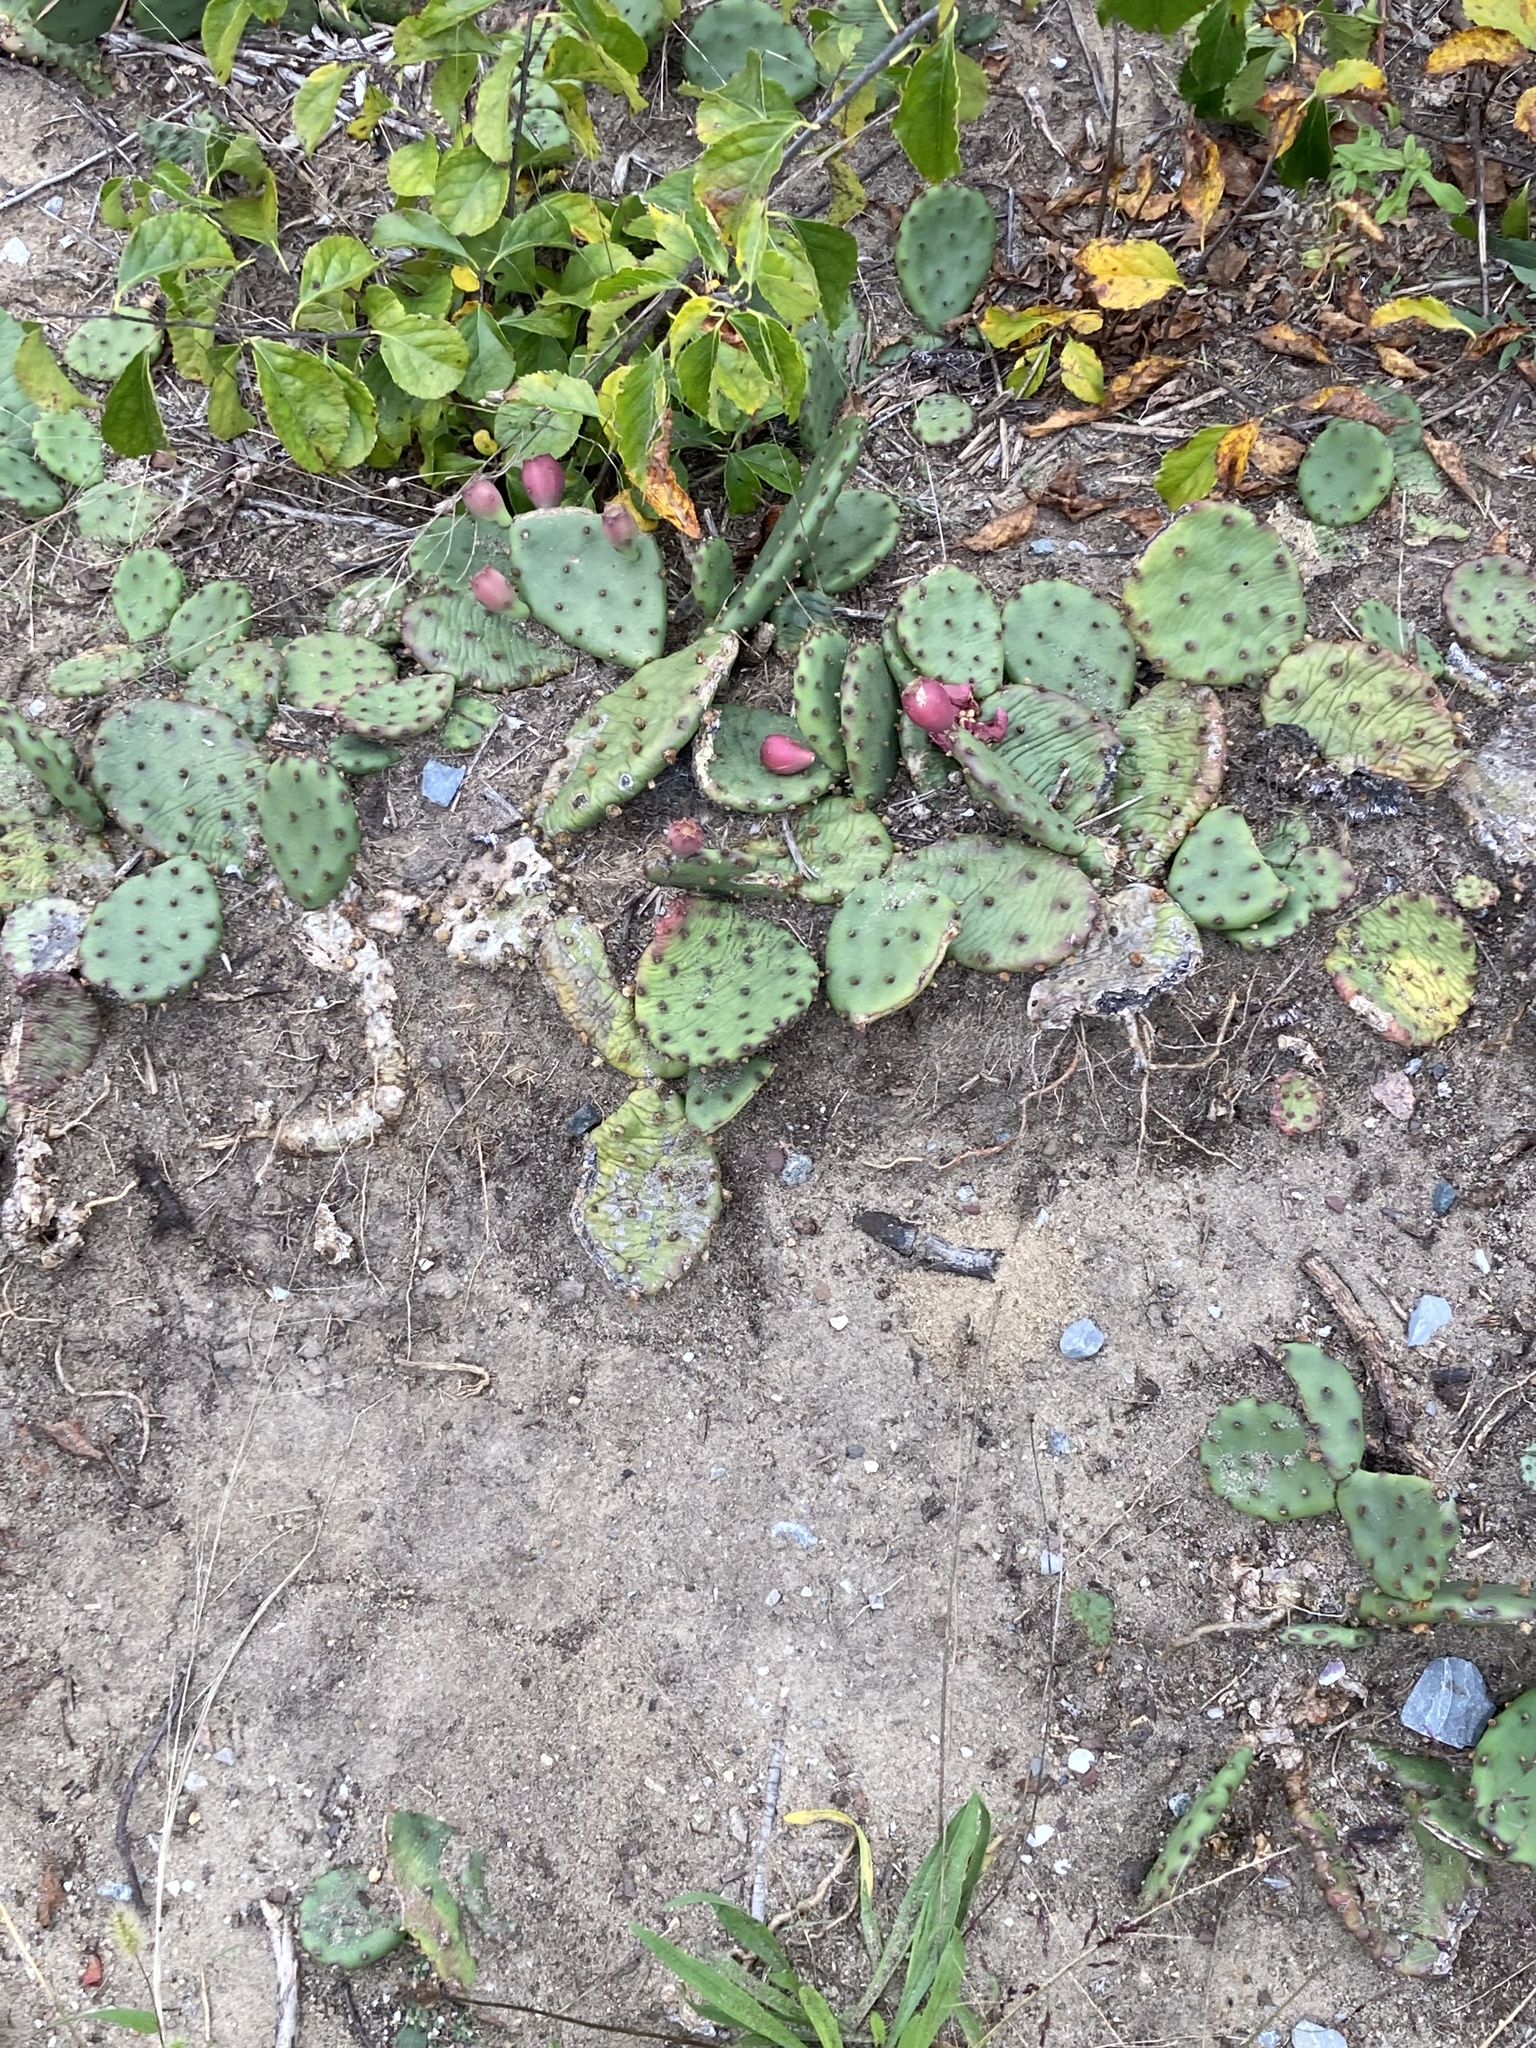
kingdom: Plantae
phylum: Tracheophyta
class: Magnoliopsida
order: Caryophyllales
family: Cactaceae
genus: Opuntia
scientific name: Opuntia humifusa
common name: Eastern prickly-pear
